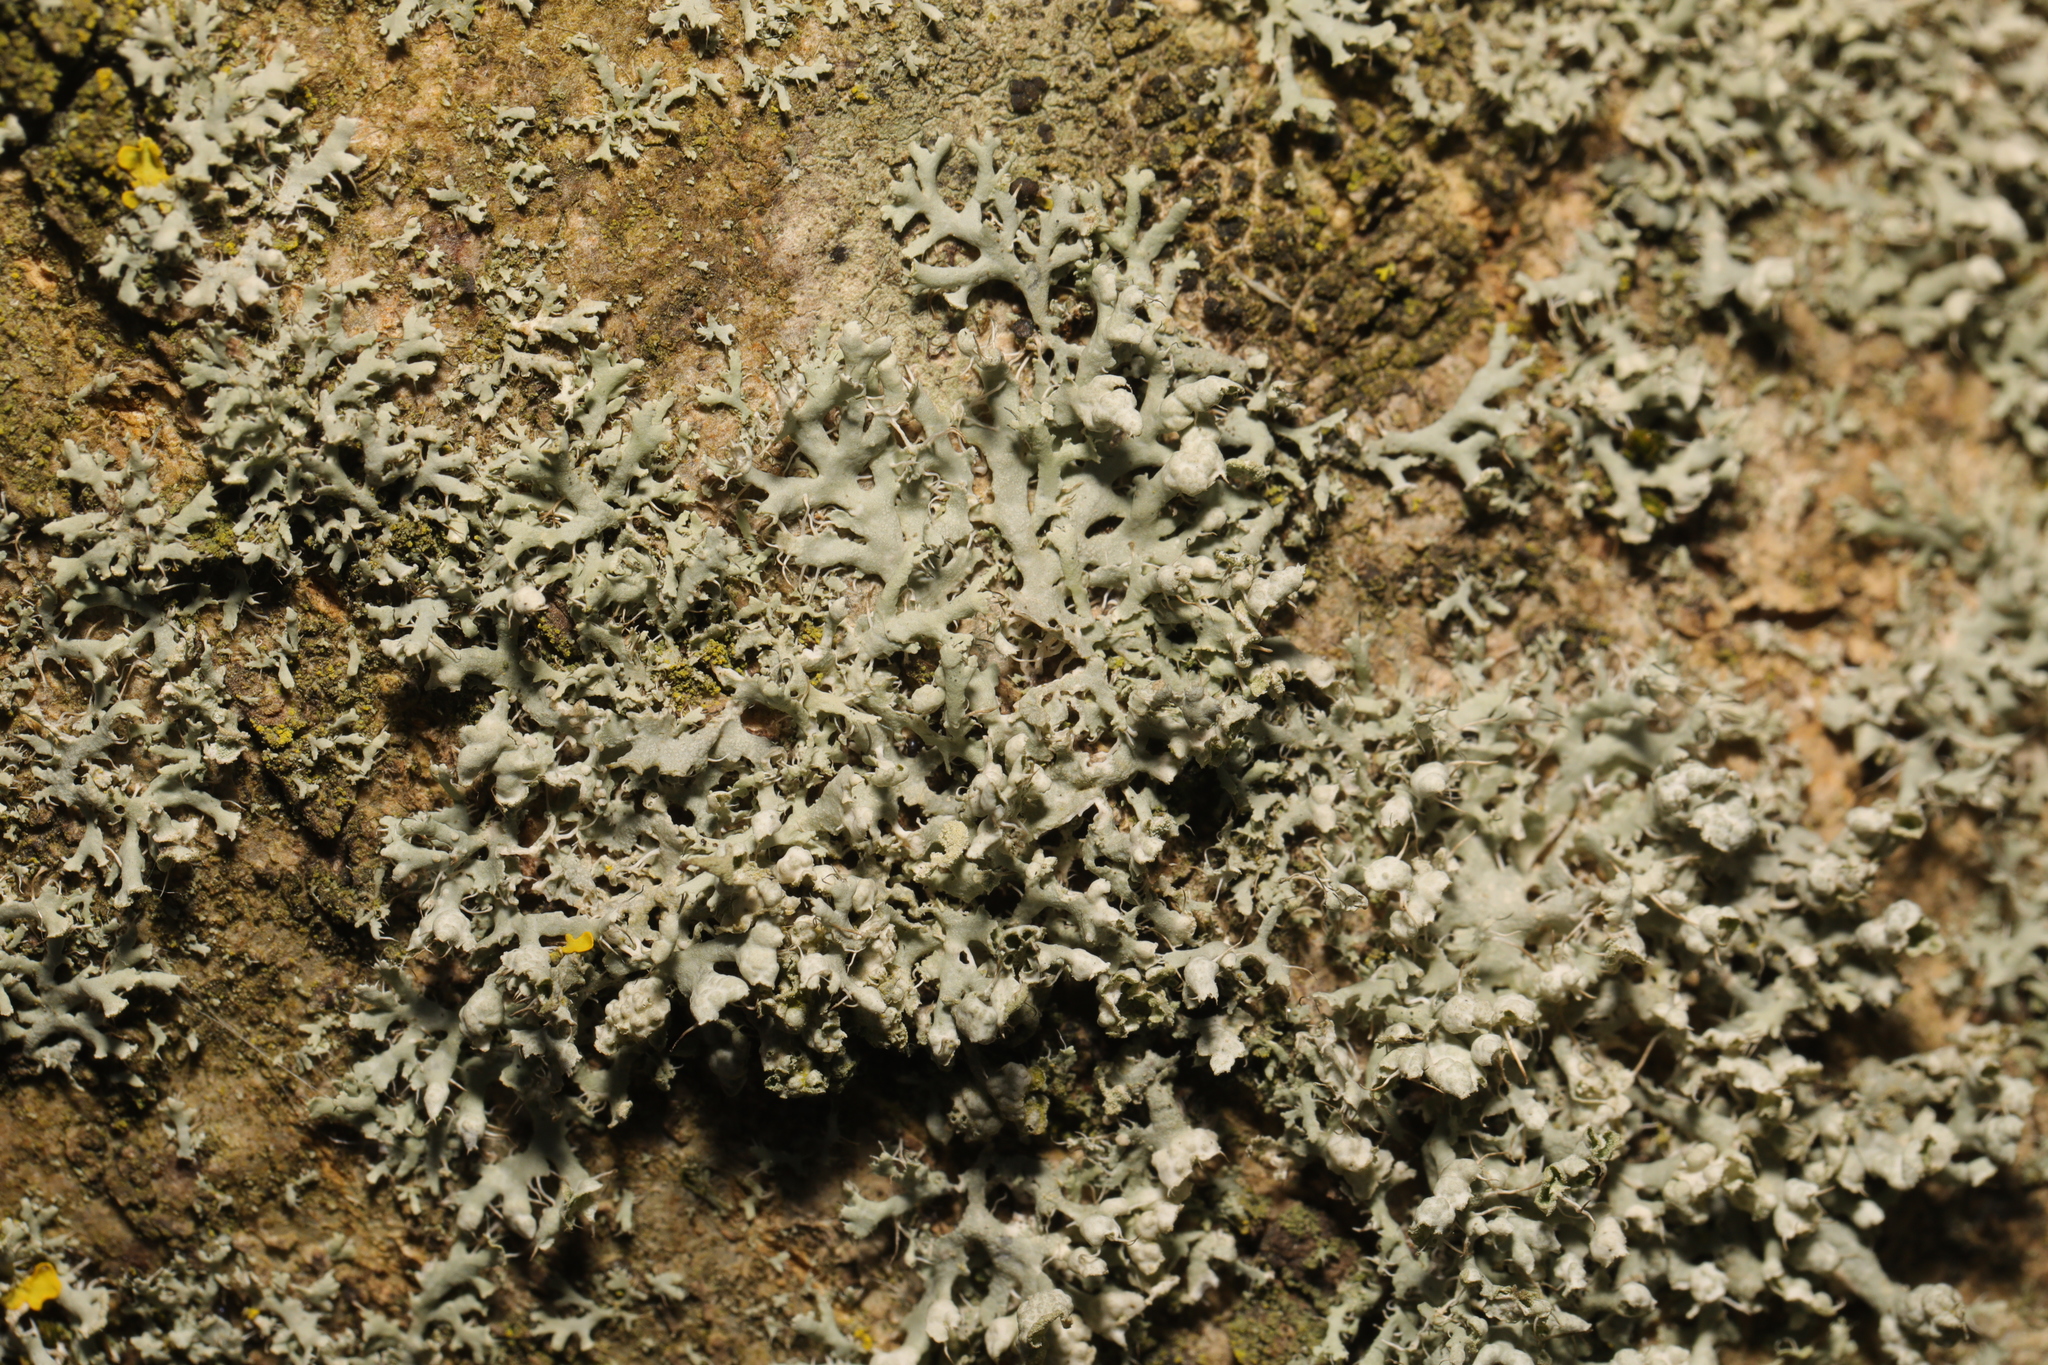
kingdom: Fungi
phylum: Ascomycota
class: Lecanoromycetes
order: Caliciales
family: Physciaceae
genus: Physcia
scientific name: Physcia adscendens
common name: Hooded rosette lichen
